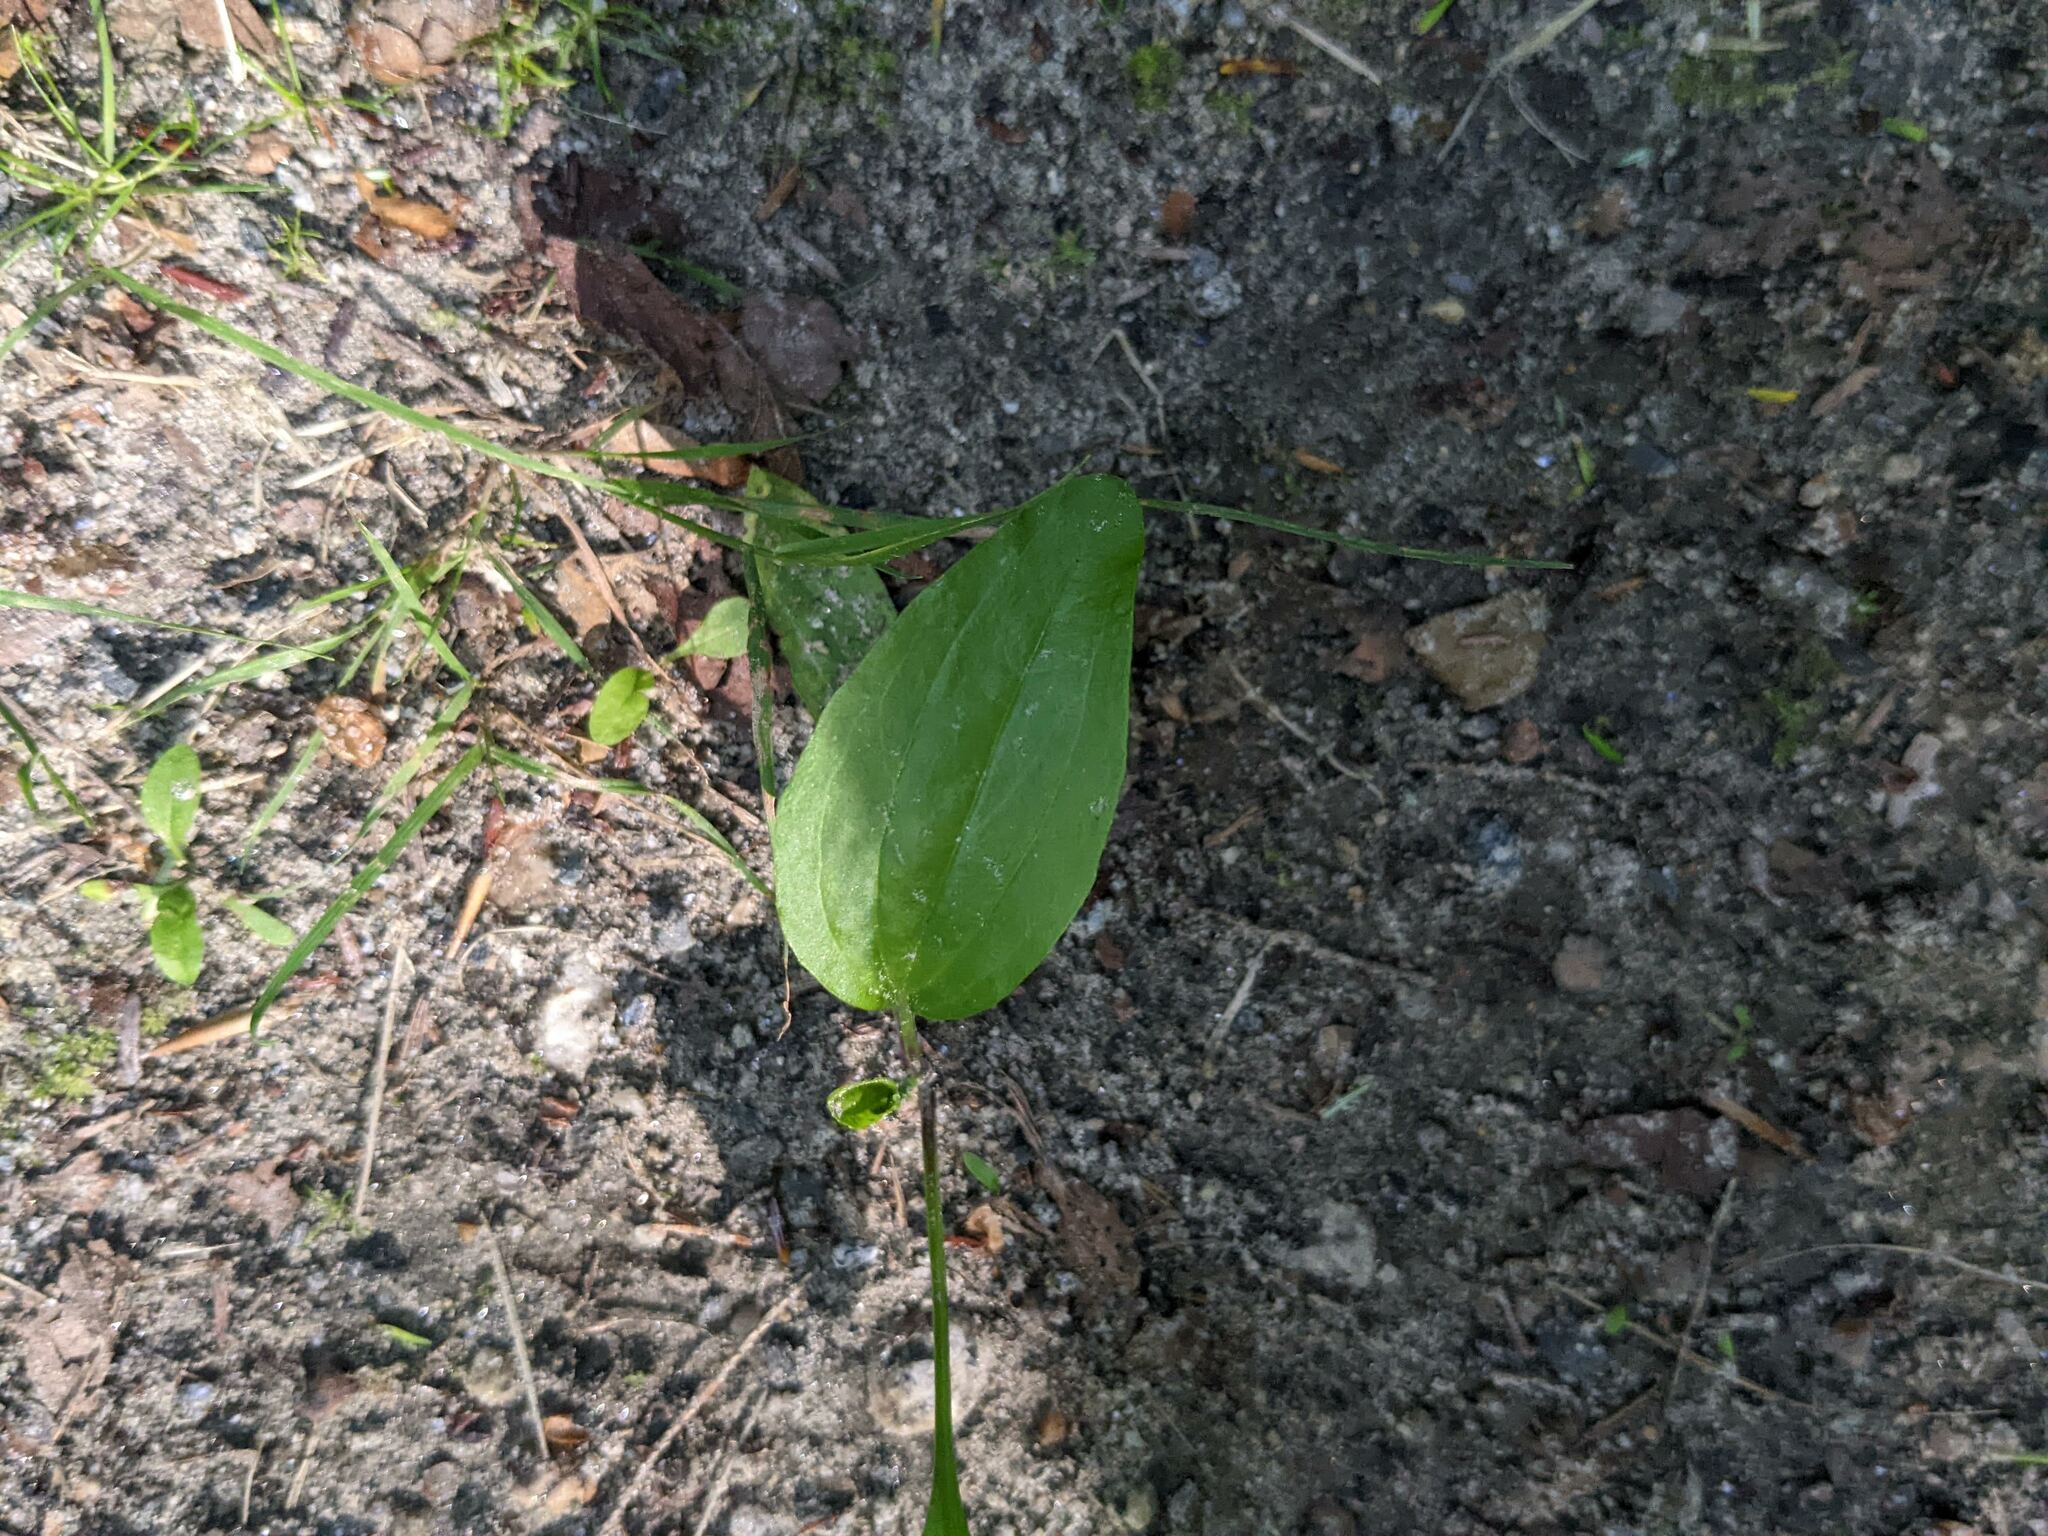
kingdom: Plantae
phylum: Tracheophyta
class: Magnoliopsida
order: Lamiales
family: Plantaginaceae
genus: Plantago
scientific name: Plantago rugelii
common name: American plantain
